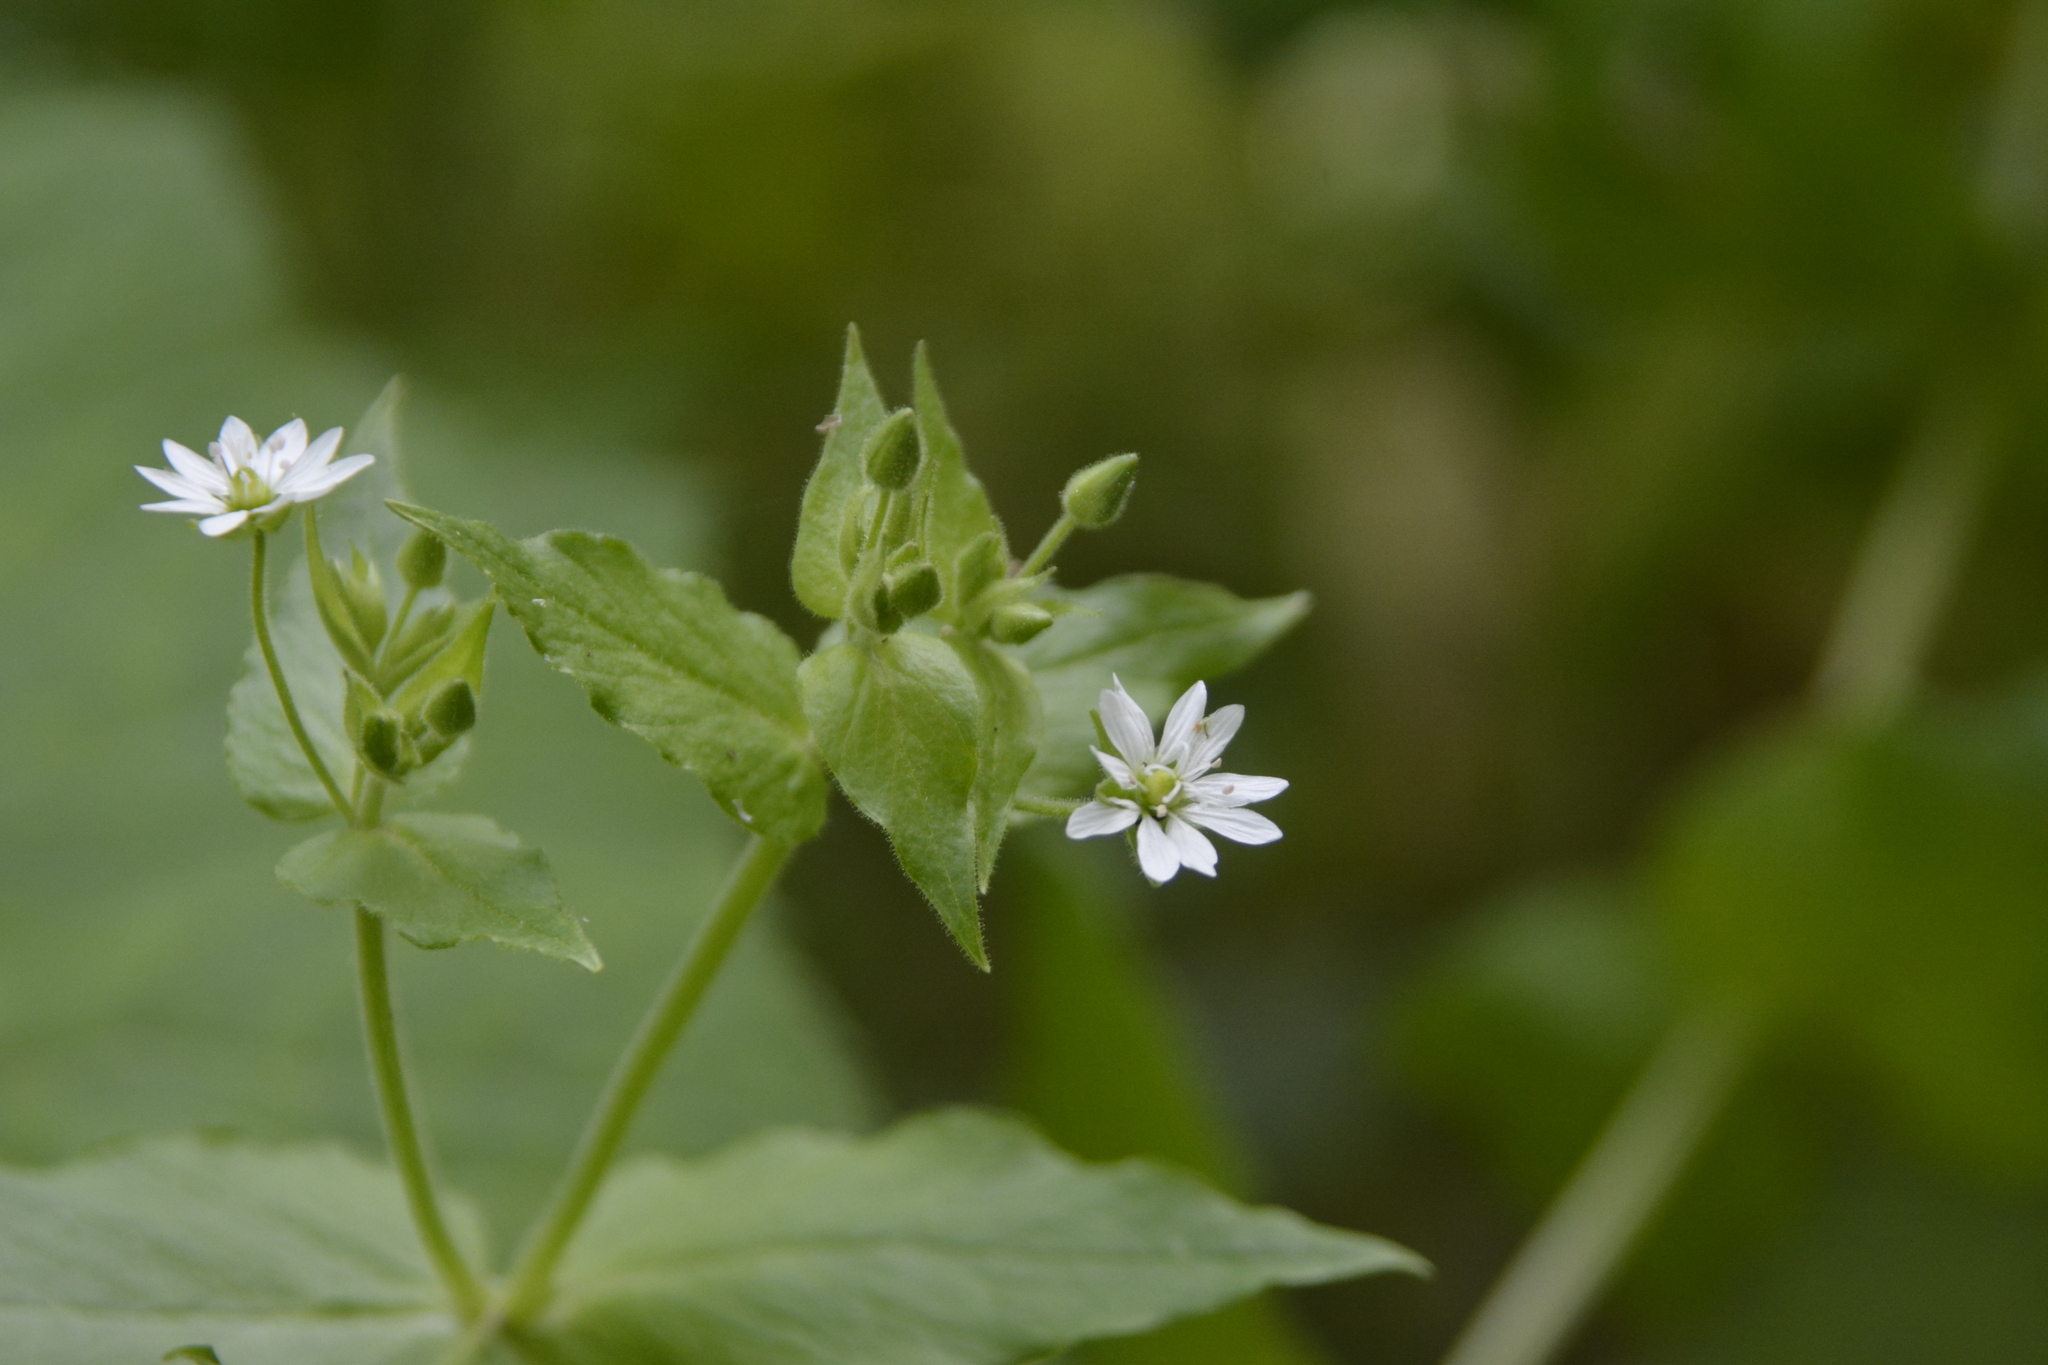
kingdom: Plantae
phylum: Tracheophyta
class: Magnoliopsida
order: Caryophyllales
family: Caryophyllaceae
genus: Stellaria
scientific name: Stellaria aquatica
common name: Water chickweed
